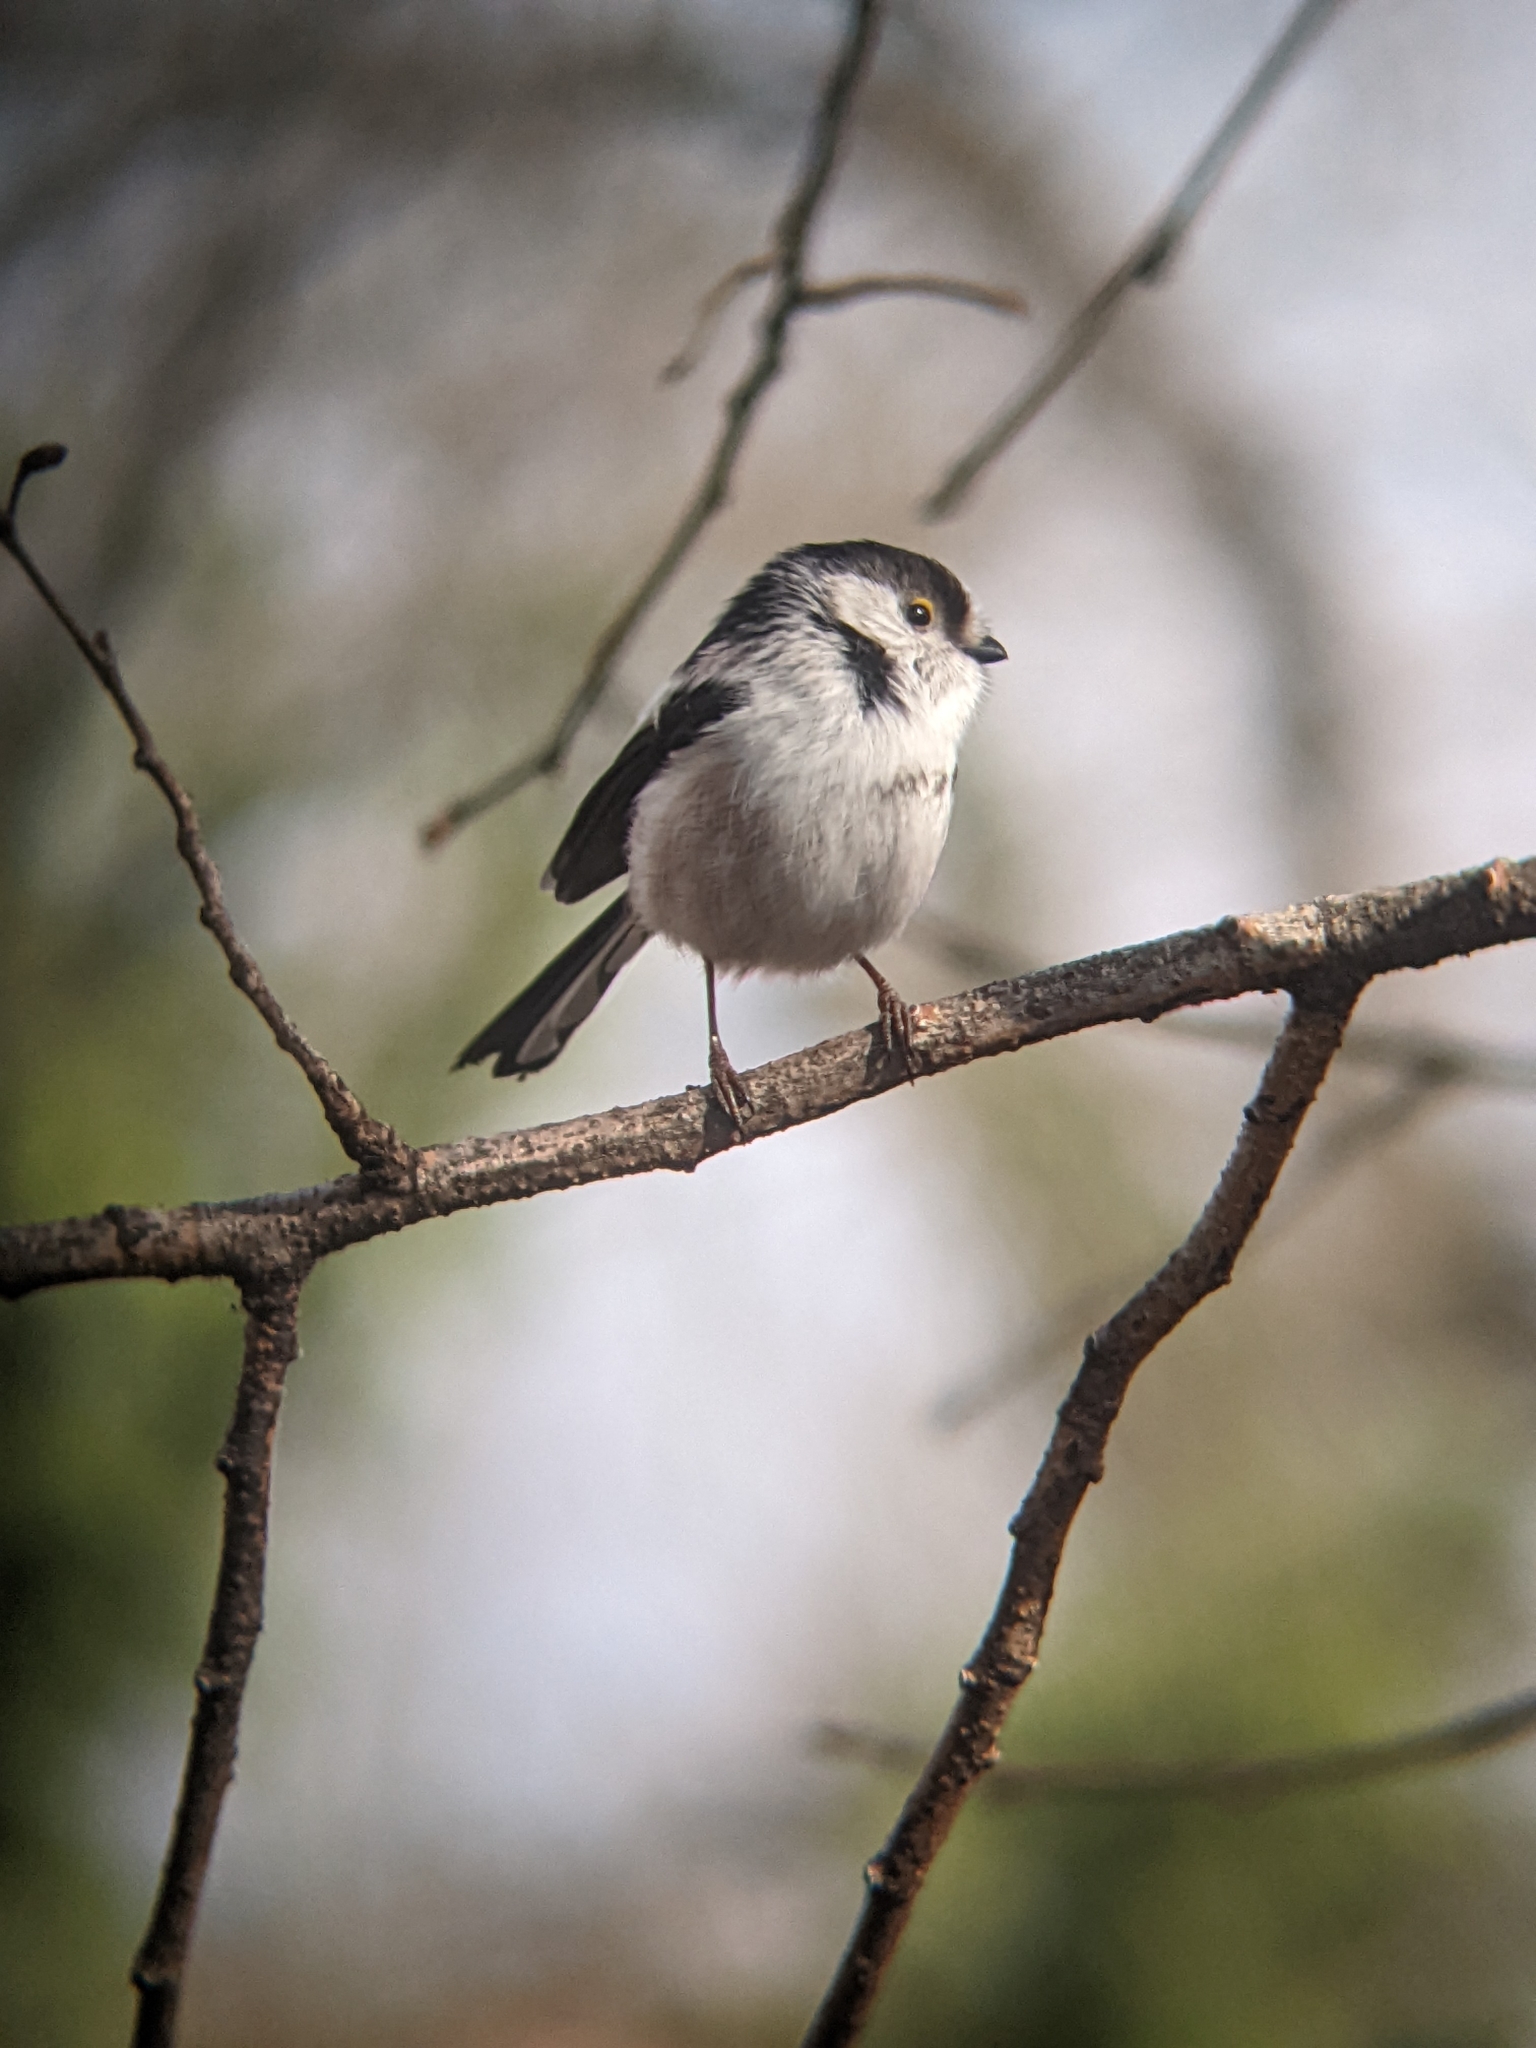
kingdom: Animalia
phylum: Chordata
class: Aves
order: Passeriformes
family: Aegithalidae
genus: Aegithalos
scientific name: Aegithalos caudatus
